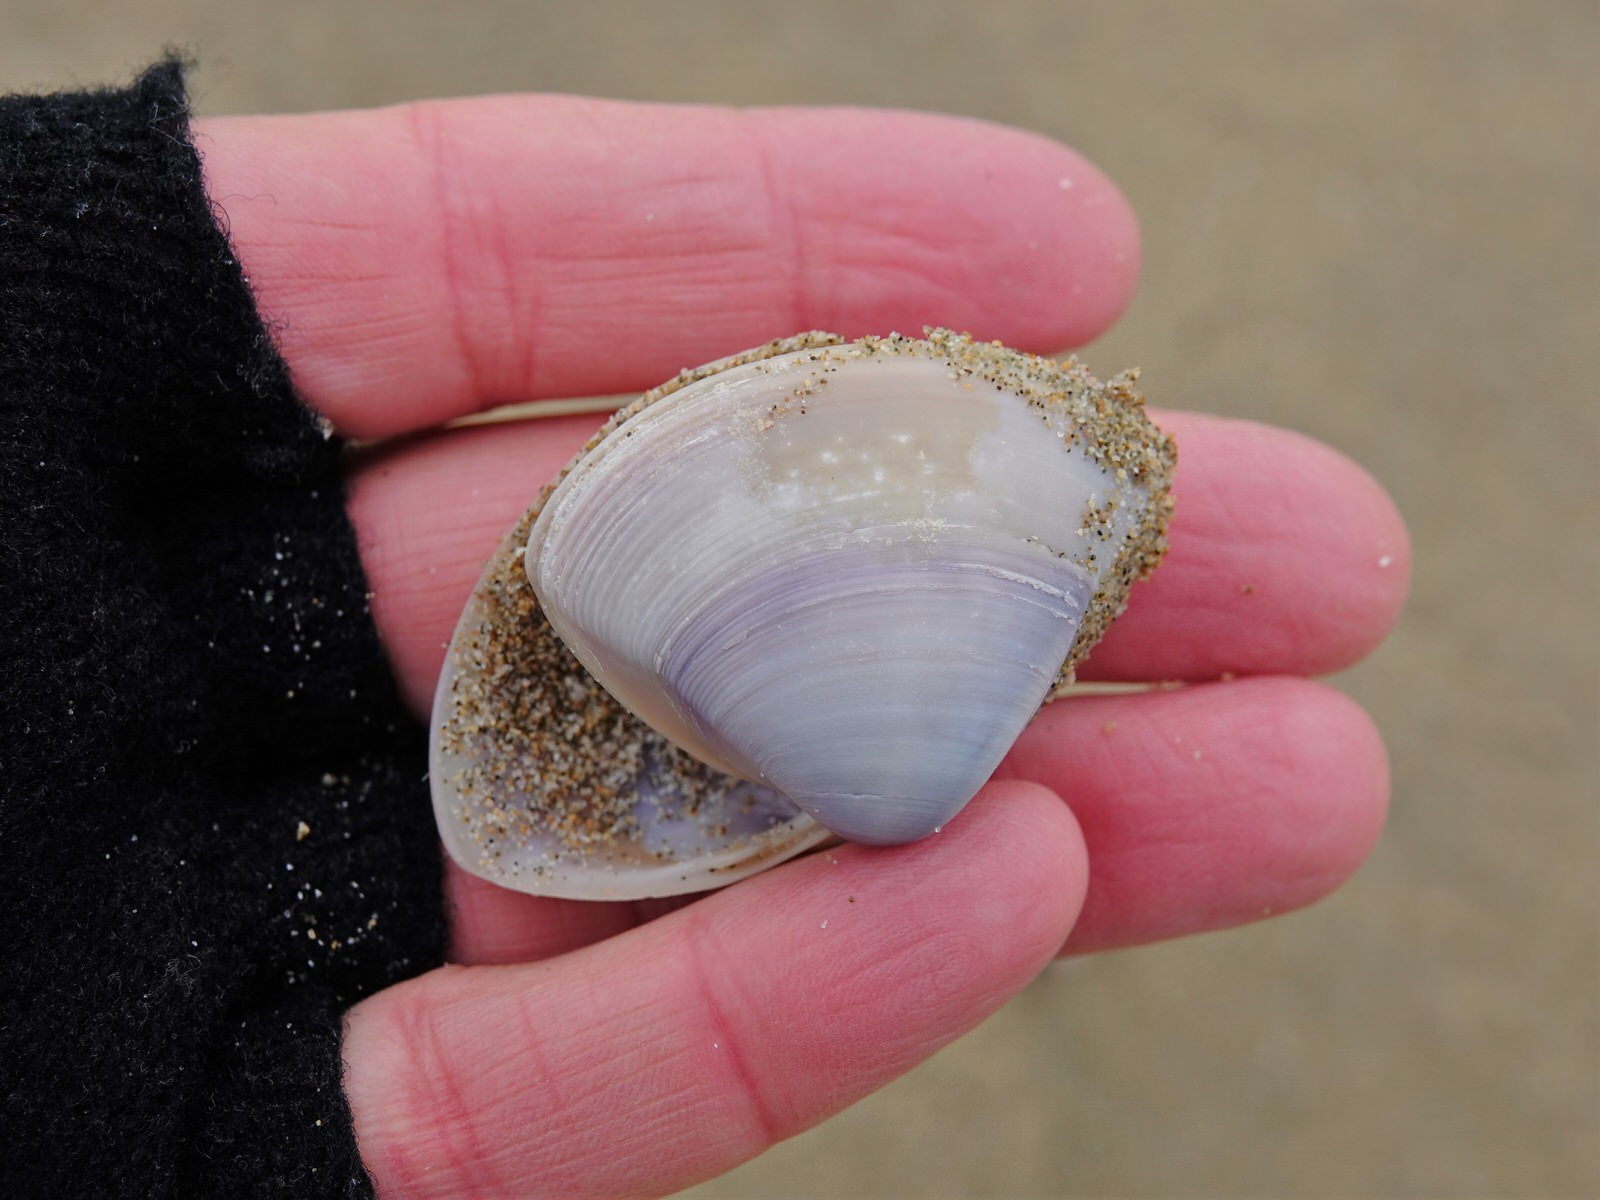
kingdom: Animalia
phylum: Mollusca
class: Bivalvia
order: Venerida
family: Mactridae
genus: Crassula
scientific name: Crassula aequilatera
